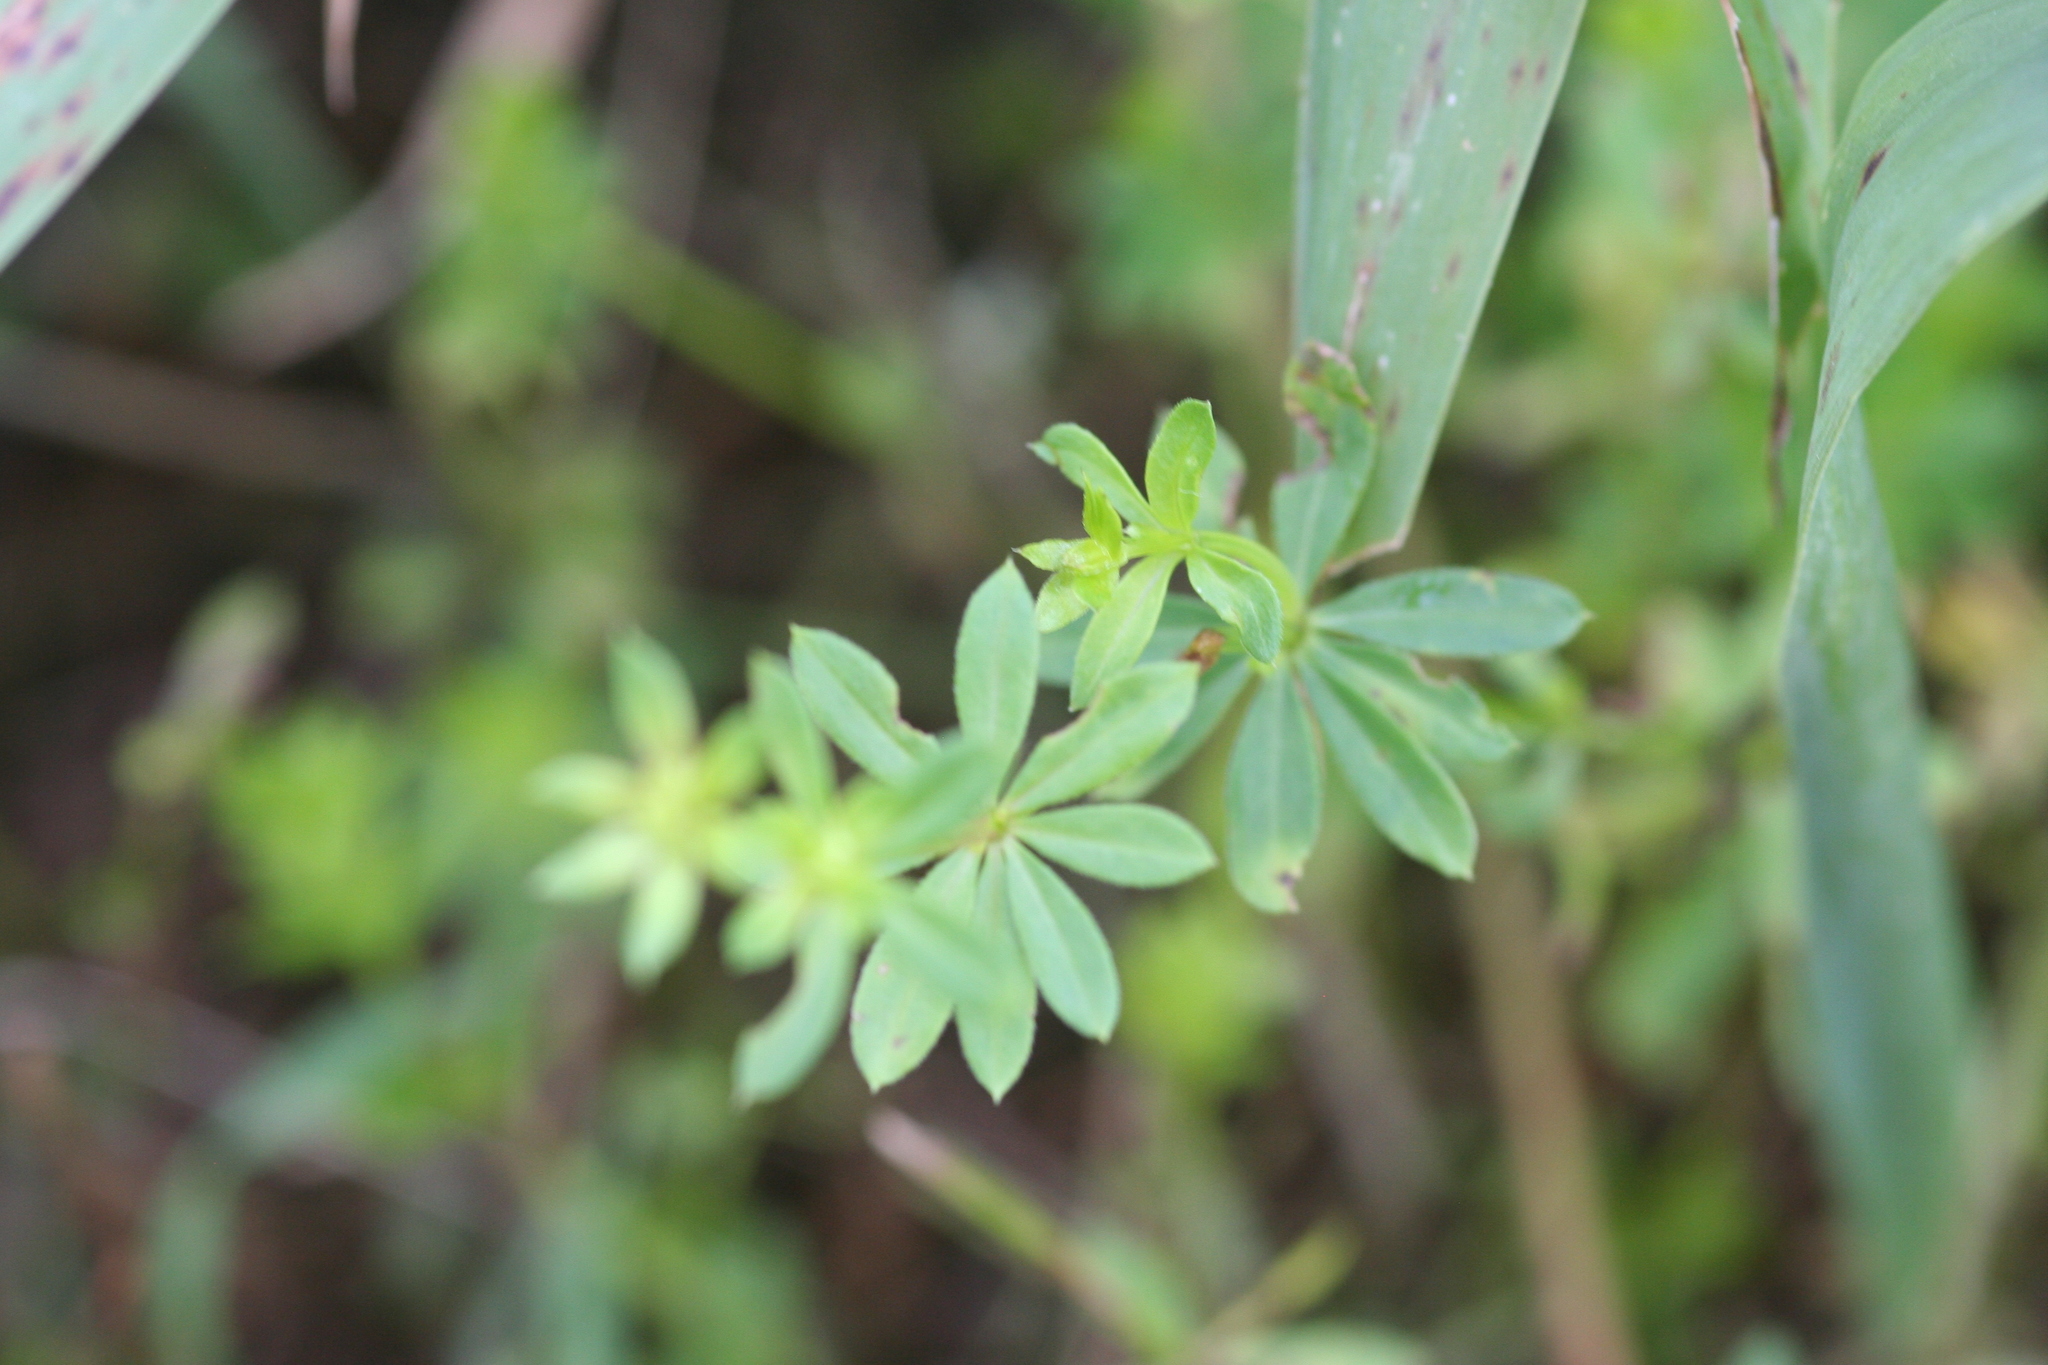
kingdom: Plantae
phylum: Tracheophyta
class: Magnoliopsida
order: Gentianales
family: Rubiaceae
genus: Galium
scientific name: Galium mollugo
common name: Hedge bedstraw
